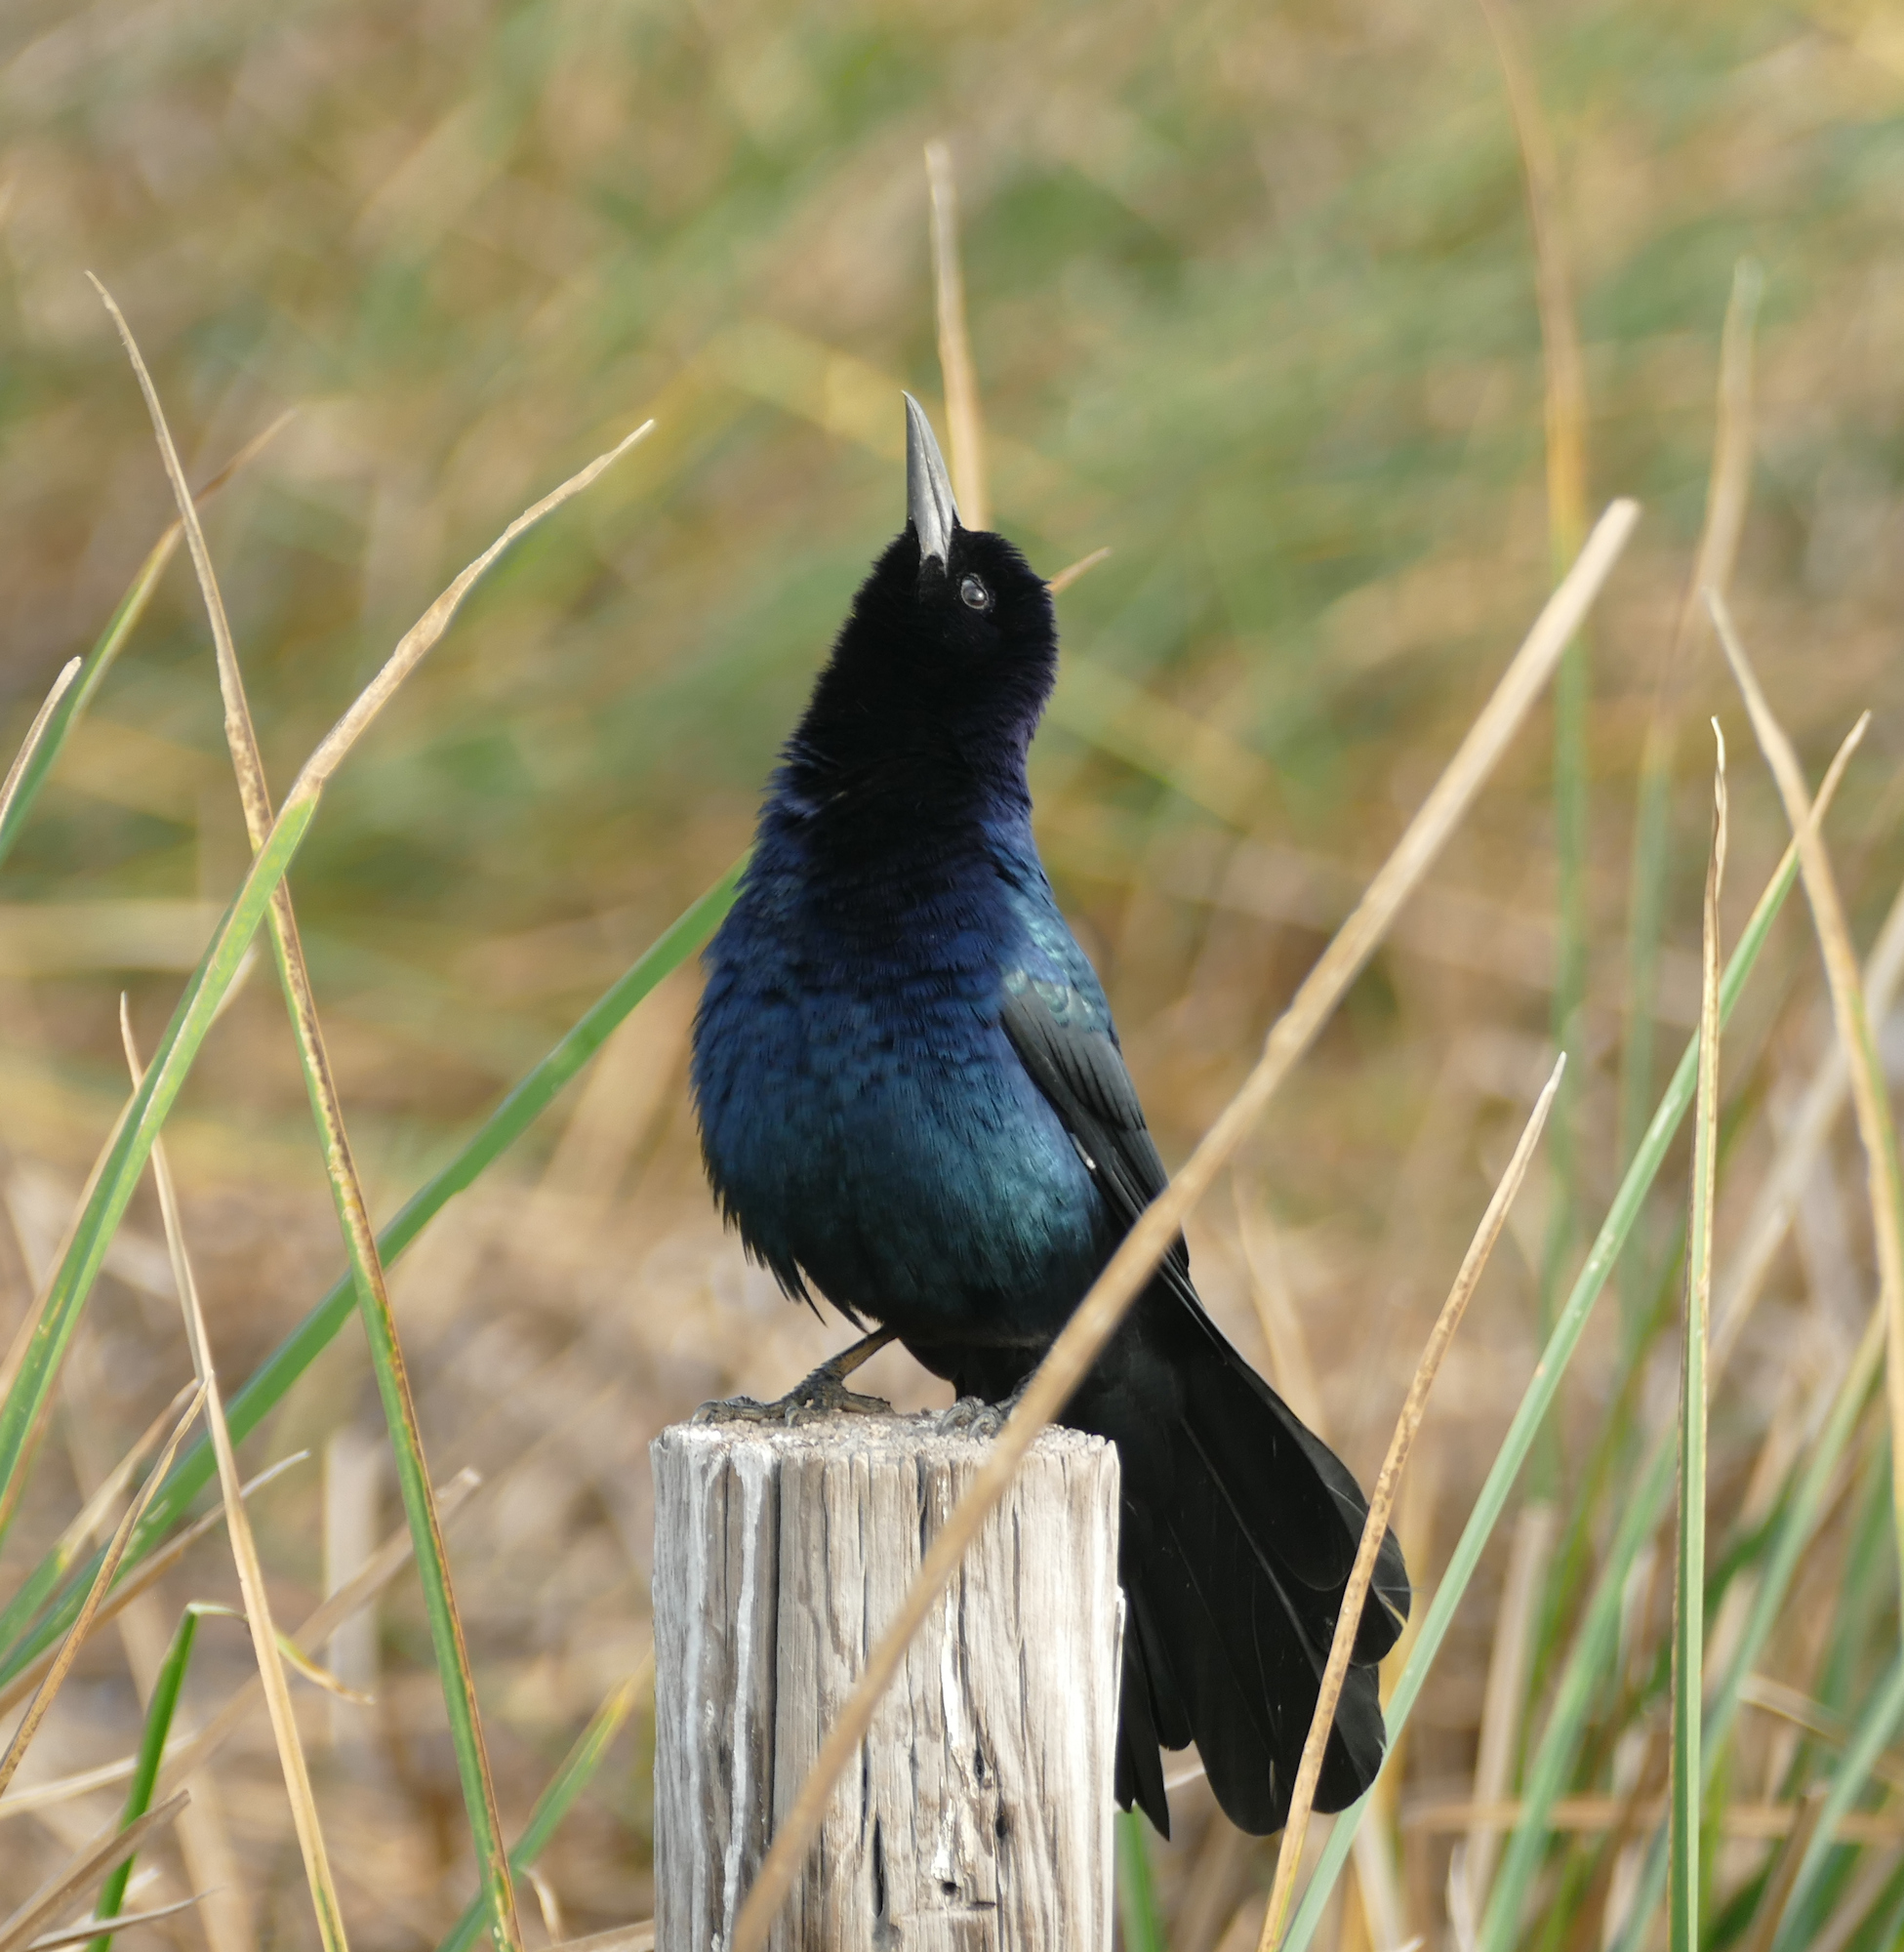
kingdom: Animalia
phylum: Chordata
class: Aves
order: Passeriformes
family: Icteridae
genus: Quiscalus
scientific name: Quiscalus major
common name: Boat-tailed grackle
